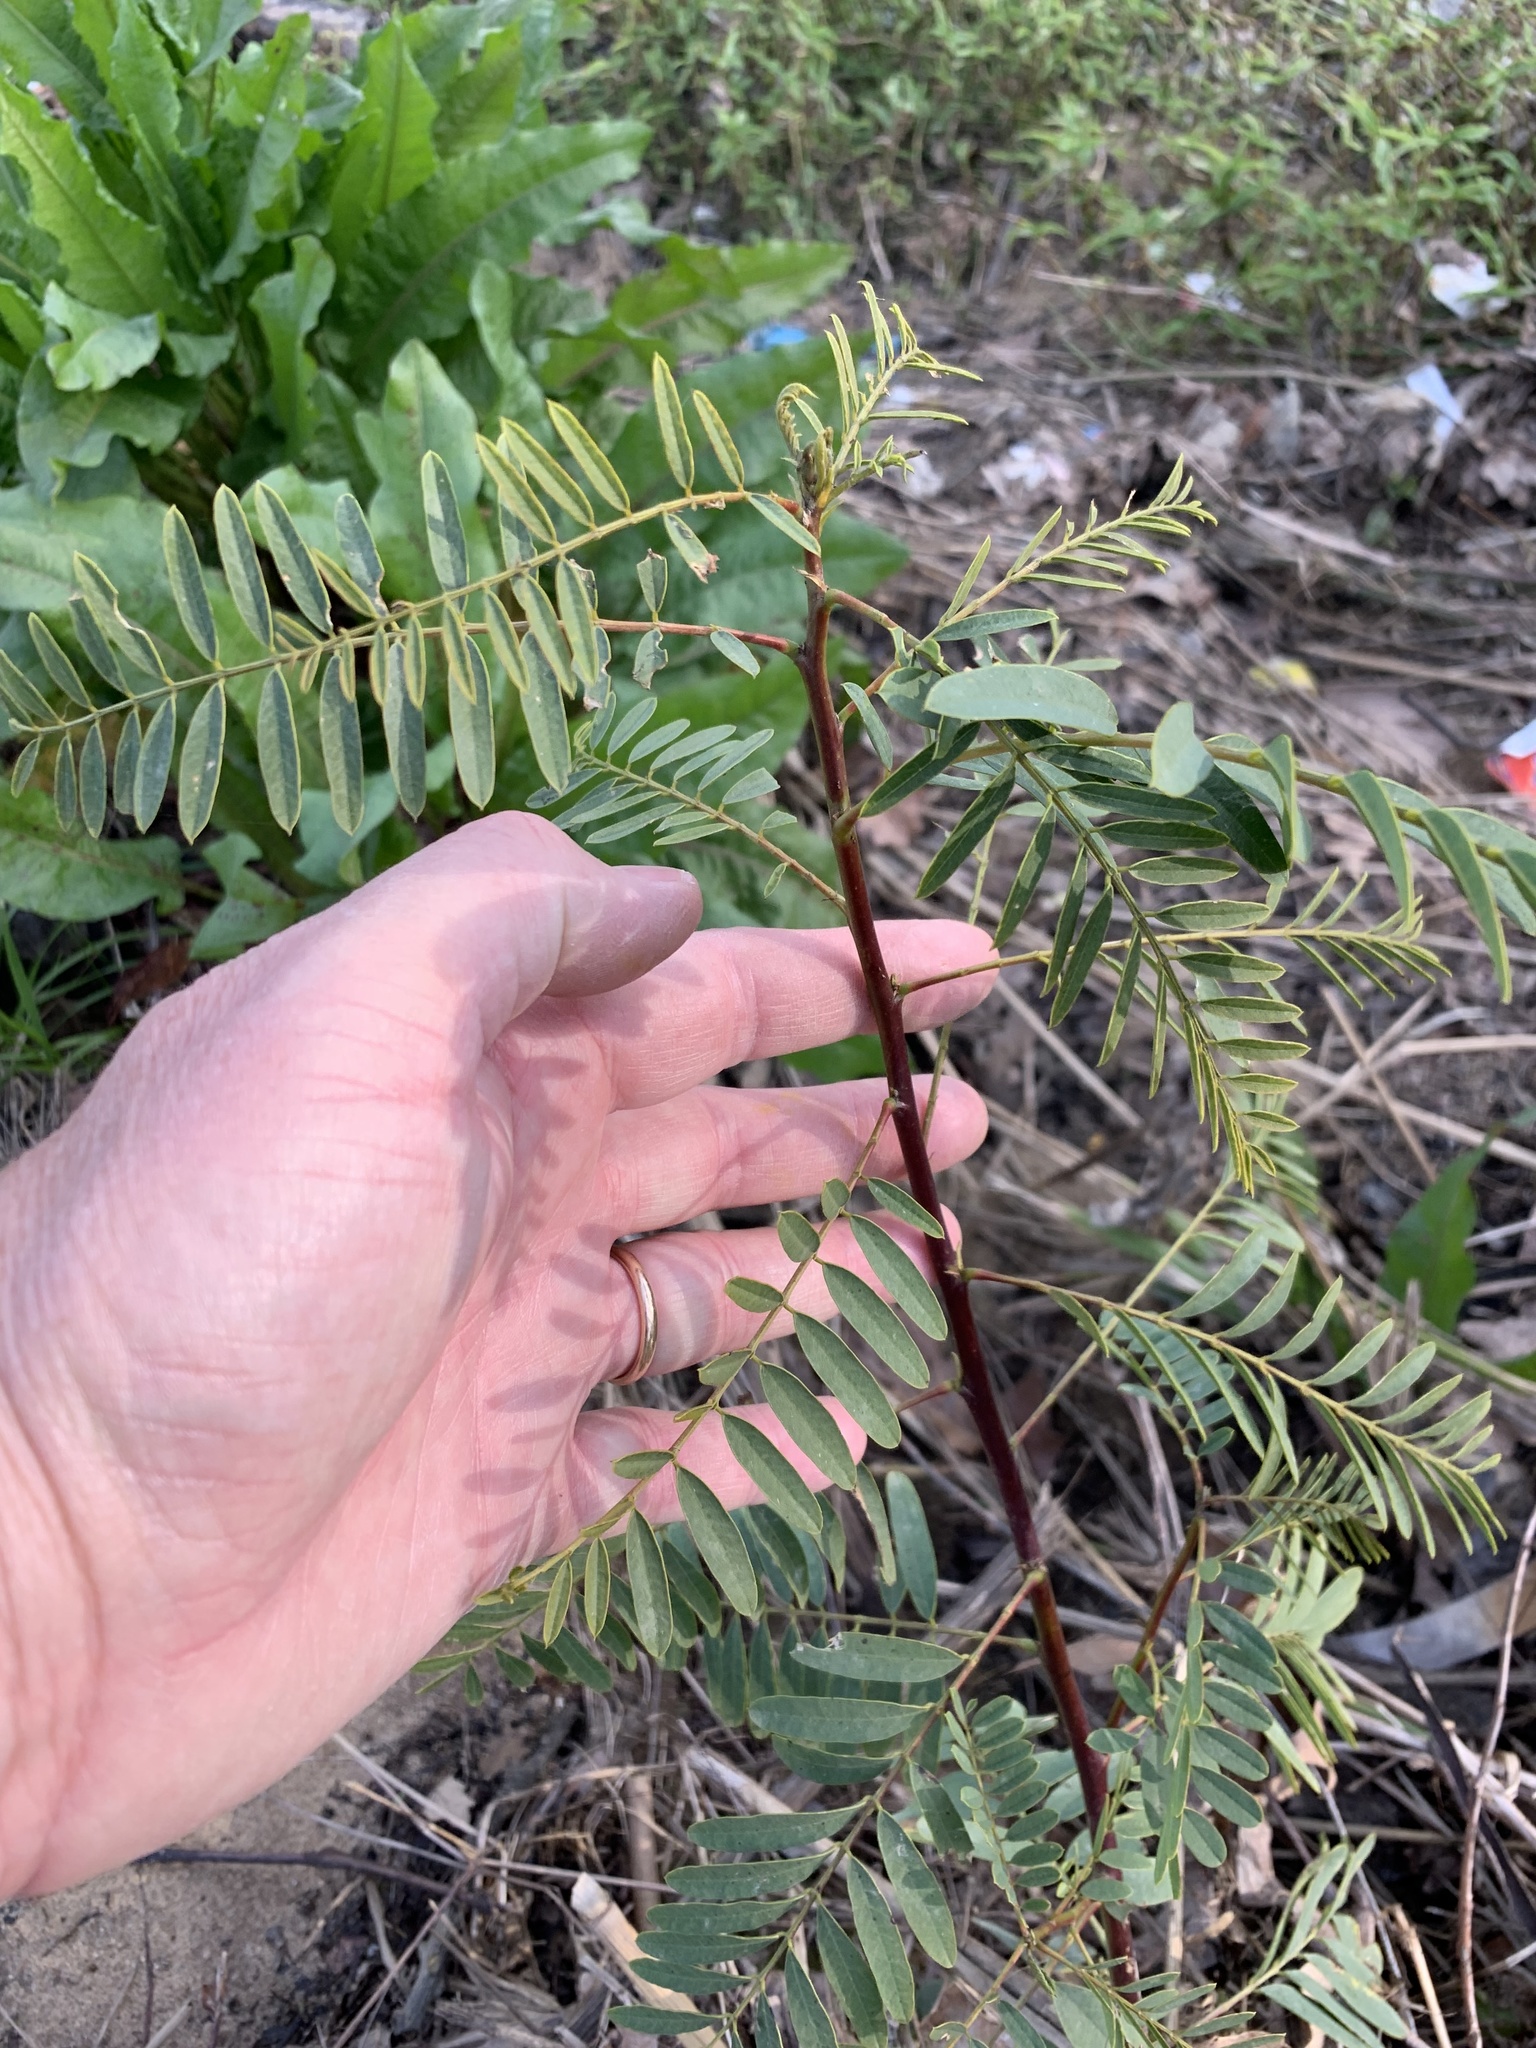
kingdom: Plantae
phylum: Tracheophyta
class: Magnoliopsida
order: Fabales
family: Fabaceae
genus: Sesbania
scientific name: Sesbania punicea
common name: Rattlebox
